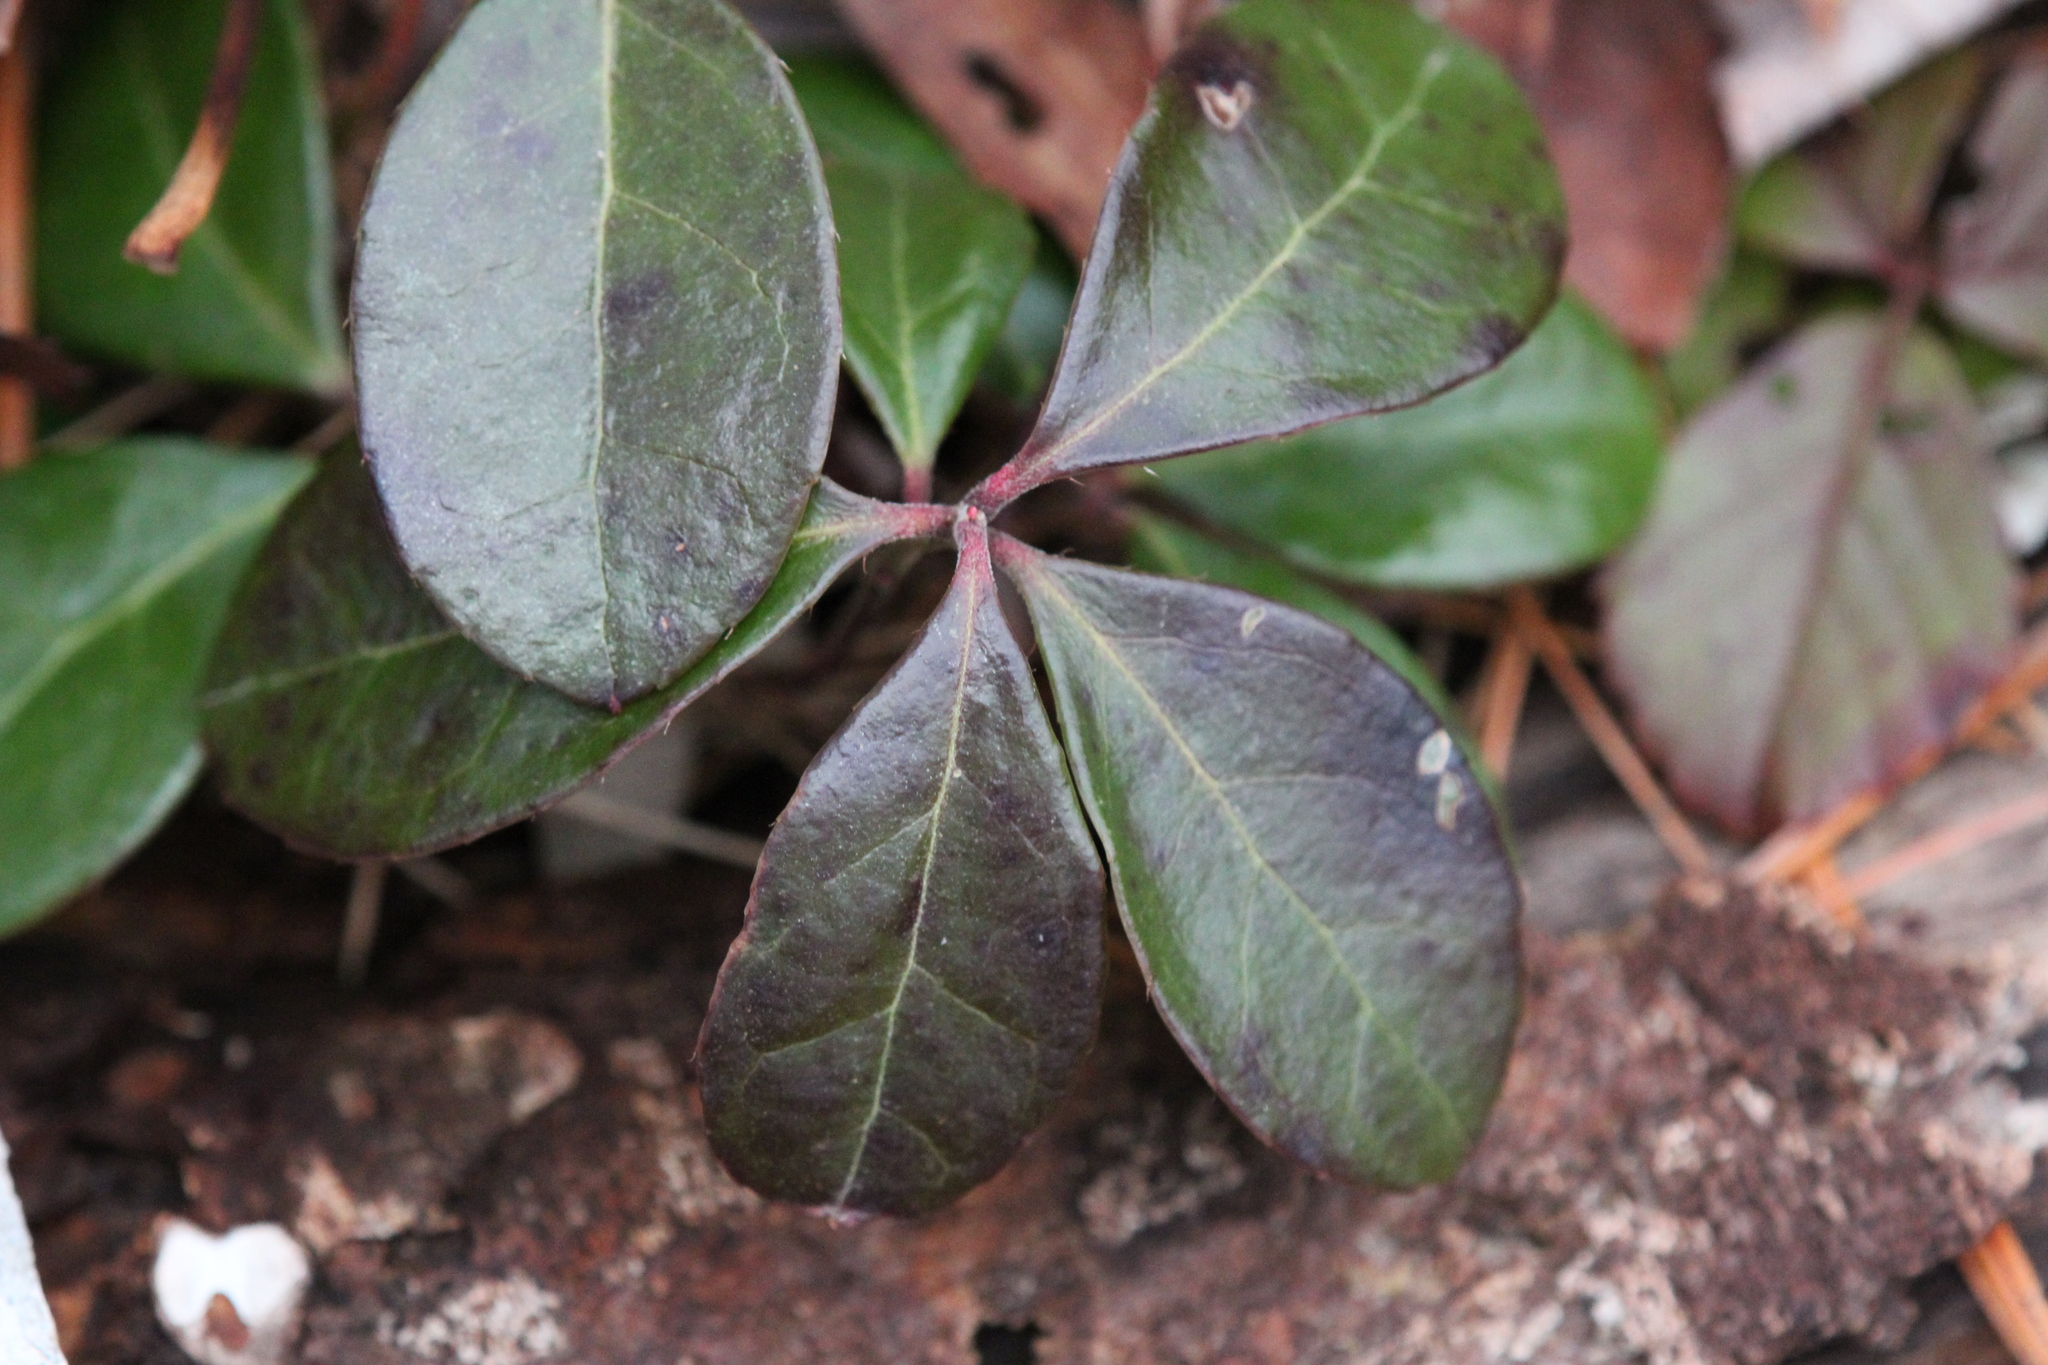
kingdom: Plantae
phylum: Tracheophyta
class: Magnoliopsida
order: Ericales
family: Ericaceae
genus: Gaultheria
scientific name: Gaultheria procumbens
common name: Checkerberry
